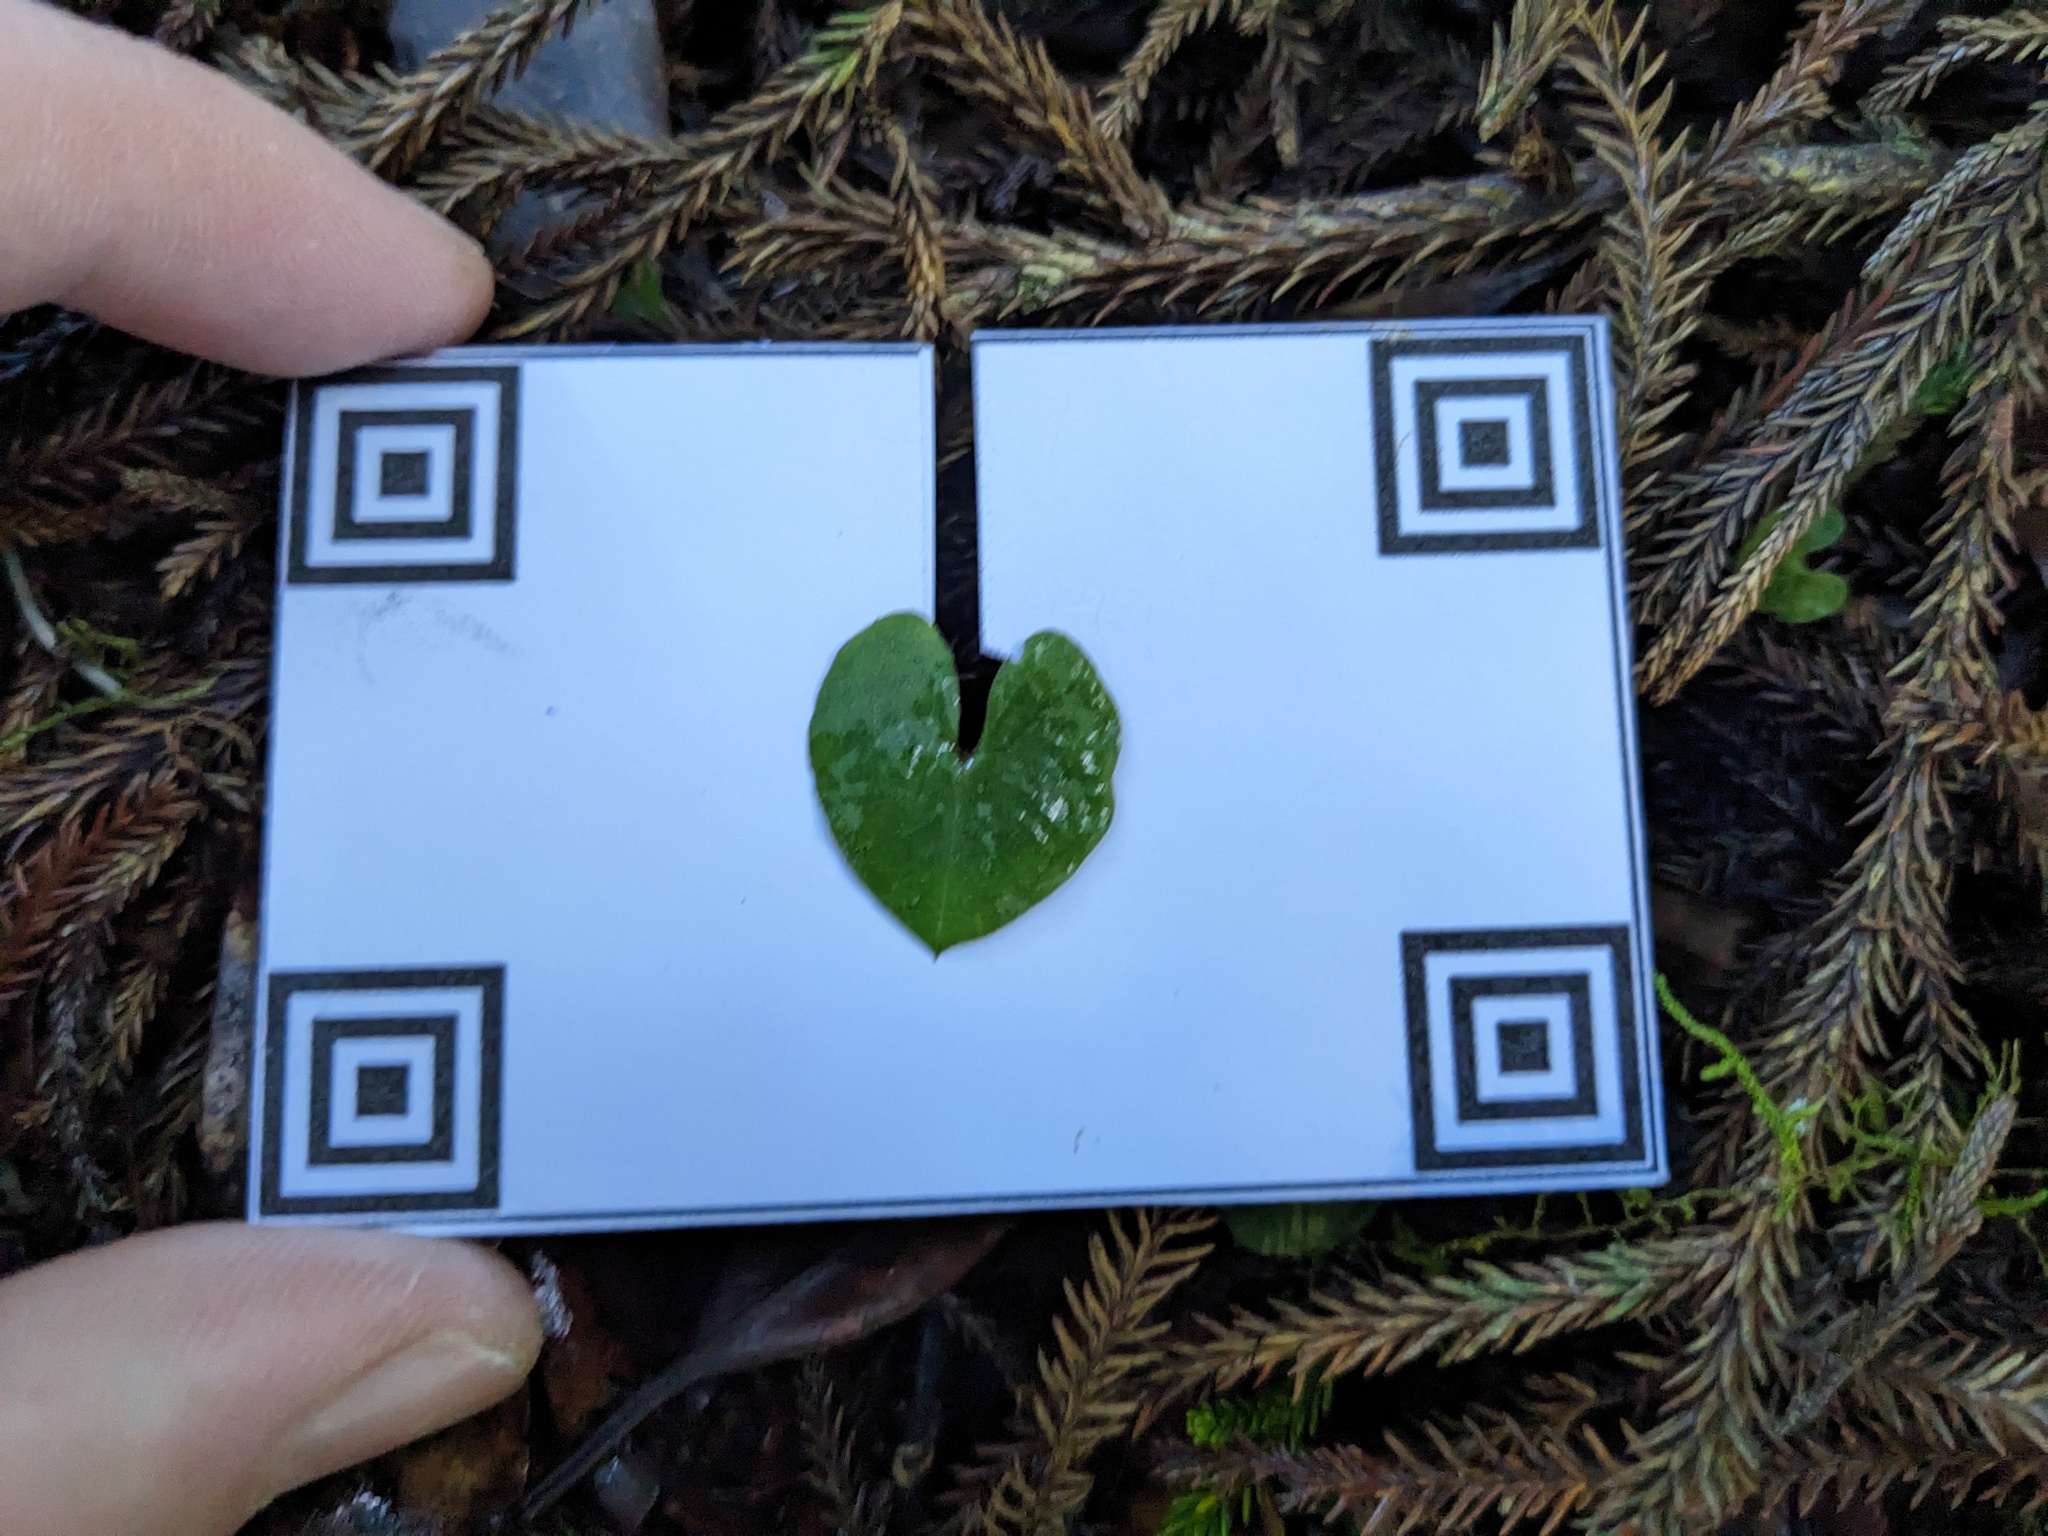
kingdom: Plantae
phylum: Tracheophyta
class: Liliopsida
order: Asparagales
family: Orchidaceae
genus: Acianthus
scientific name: Acianthus sinclairii
